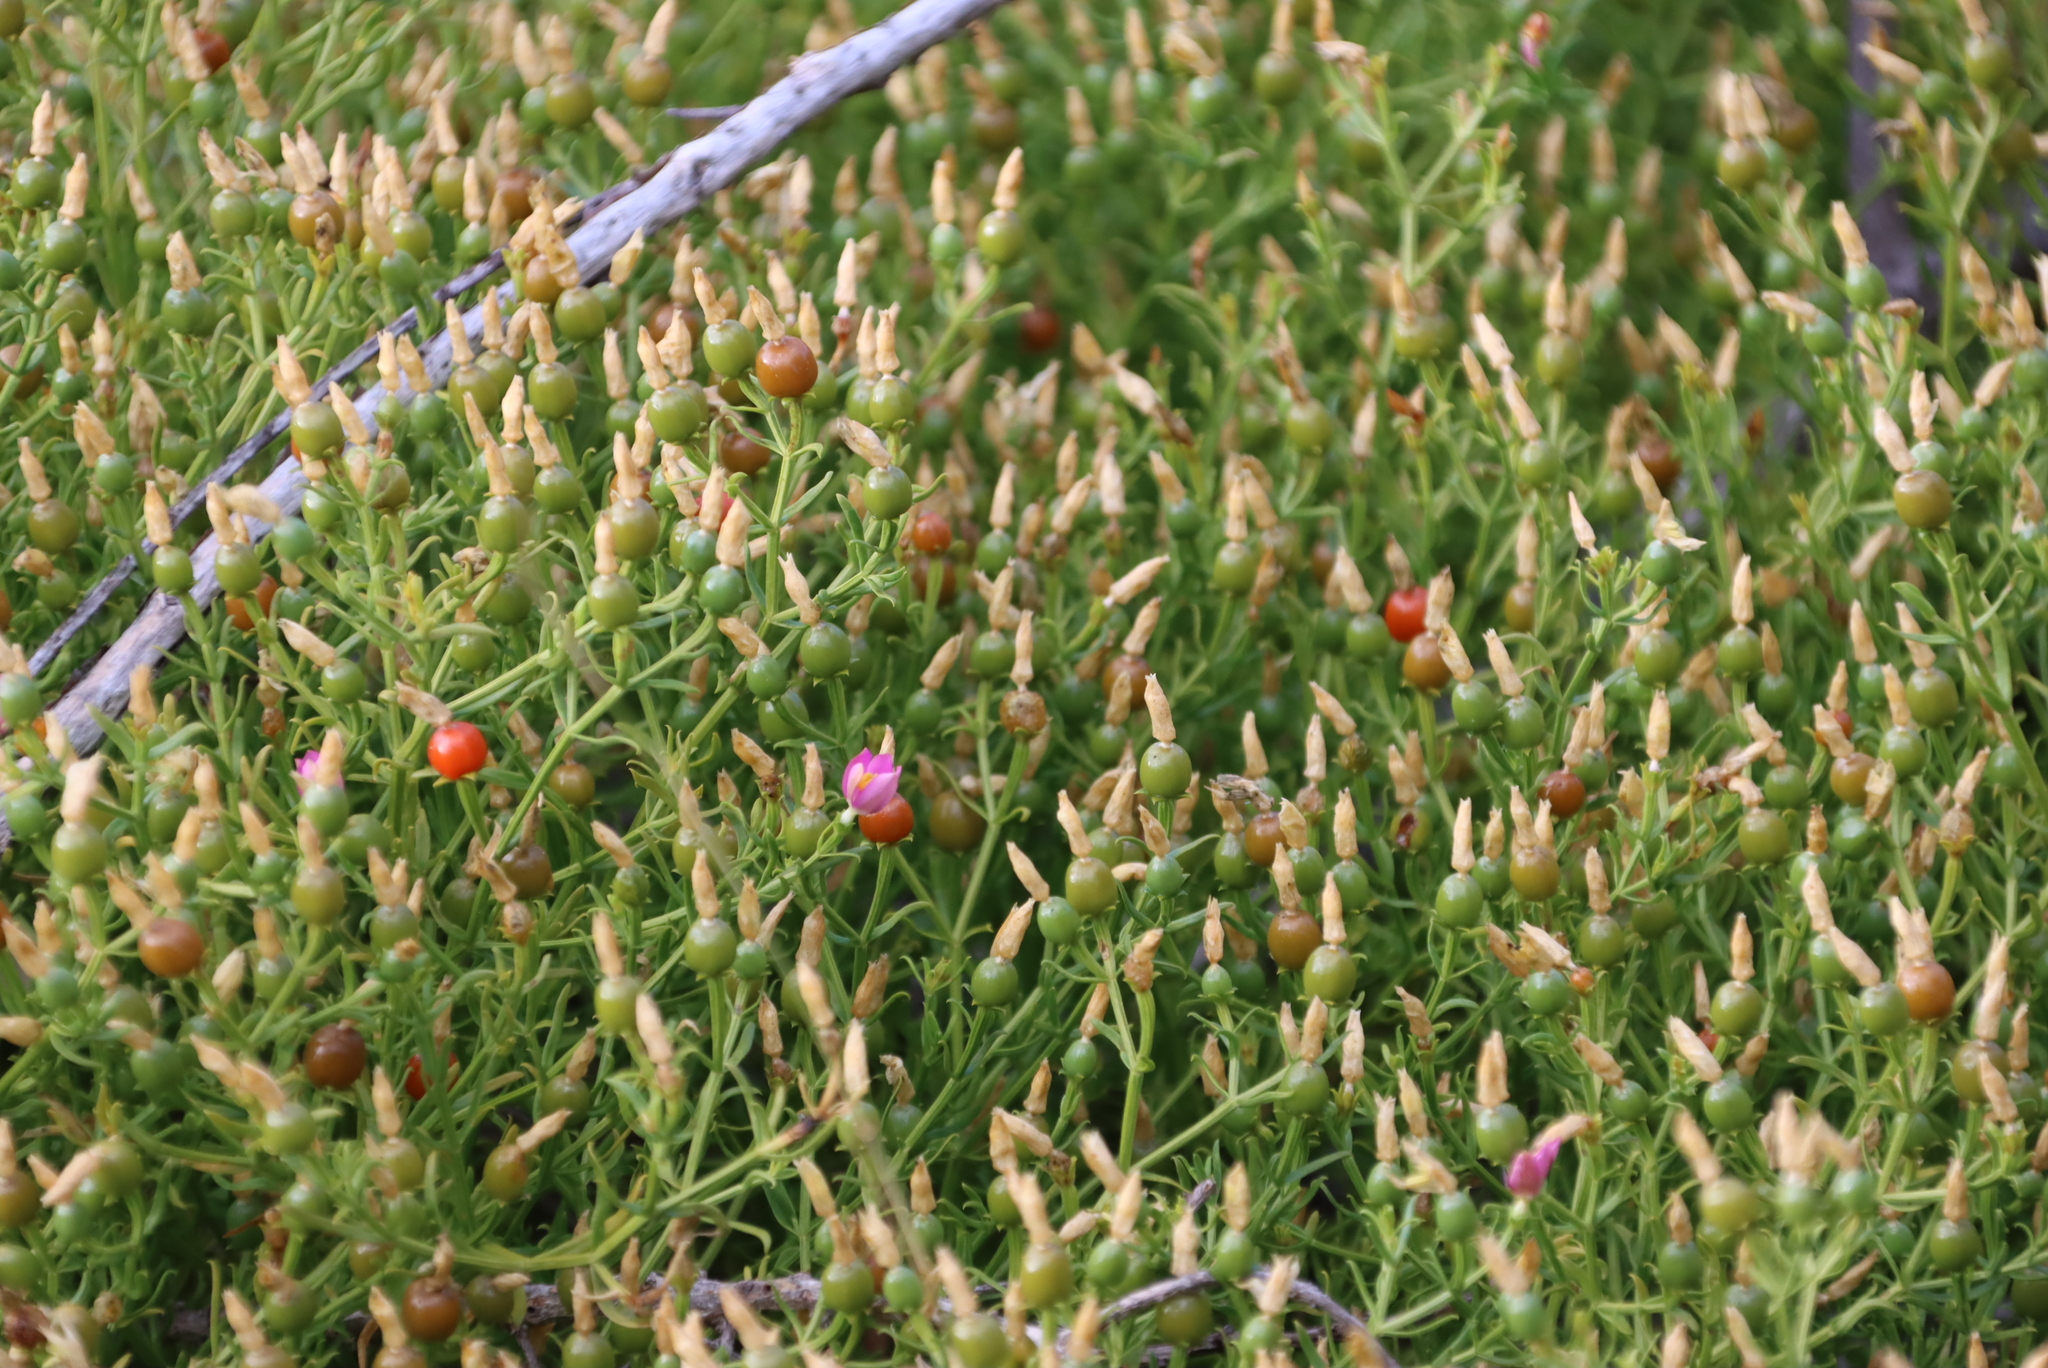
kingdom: Plantae
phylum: Tracheophyta
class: Magnoliopsida
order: Gentianales
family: Gentianaceae
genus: Chironia
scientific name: Chironia baccifera
